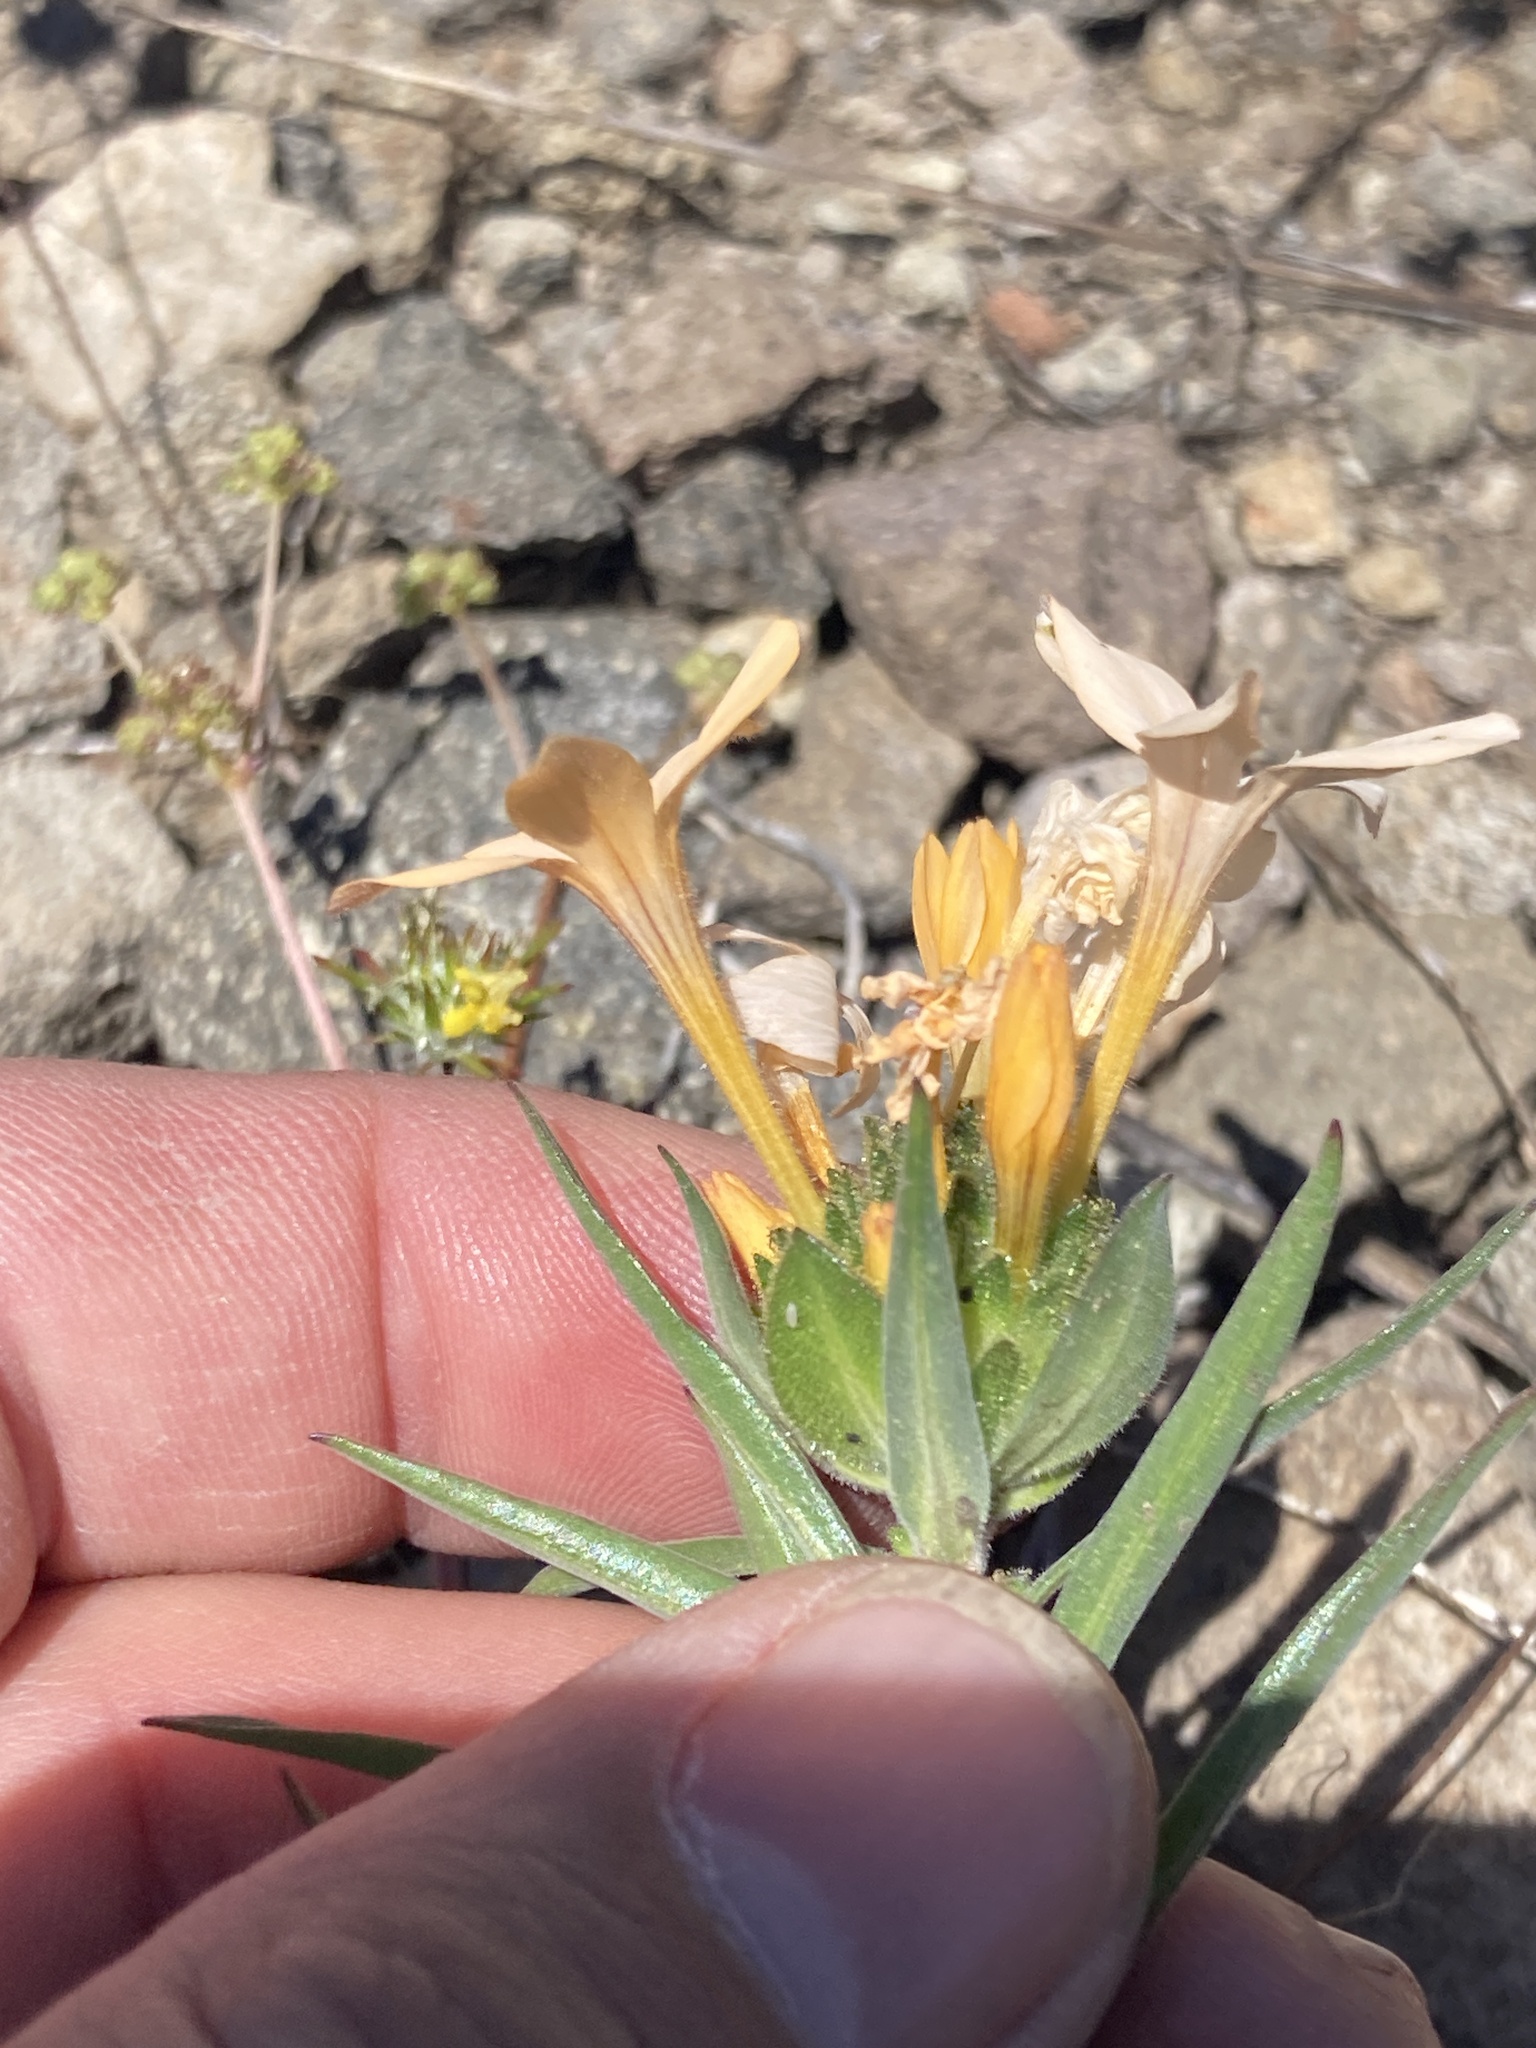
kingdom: Plantae
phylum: Tracheophyta
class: Magnoliopsida
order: Ericales
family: Polemoniaceae
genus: Collomia
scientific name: Collomia grandiflora
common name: California strawflower
